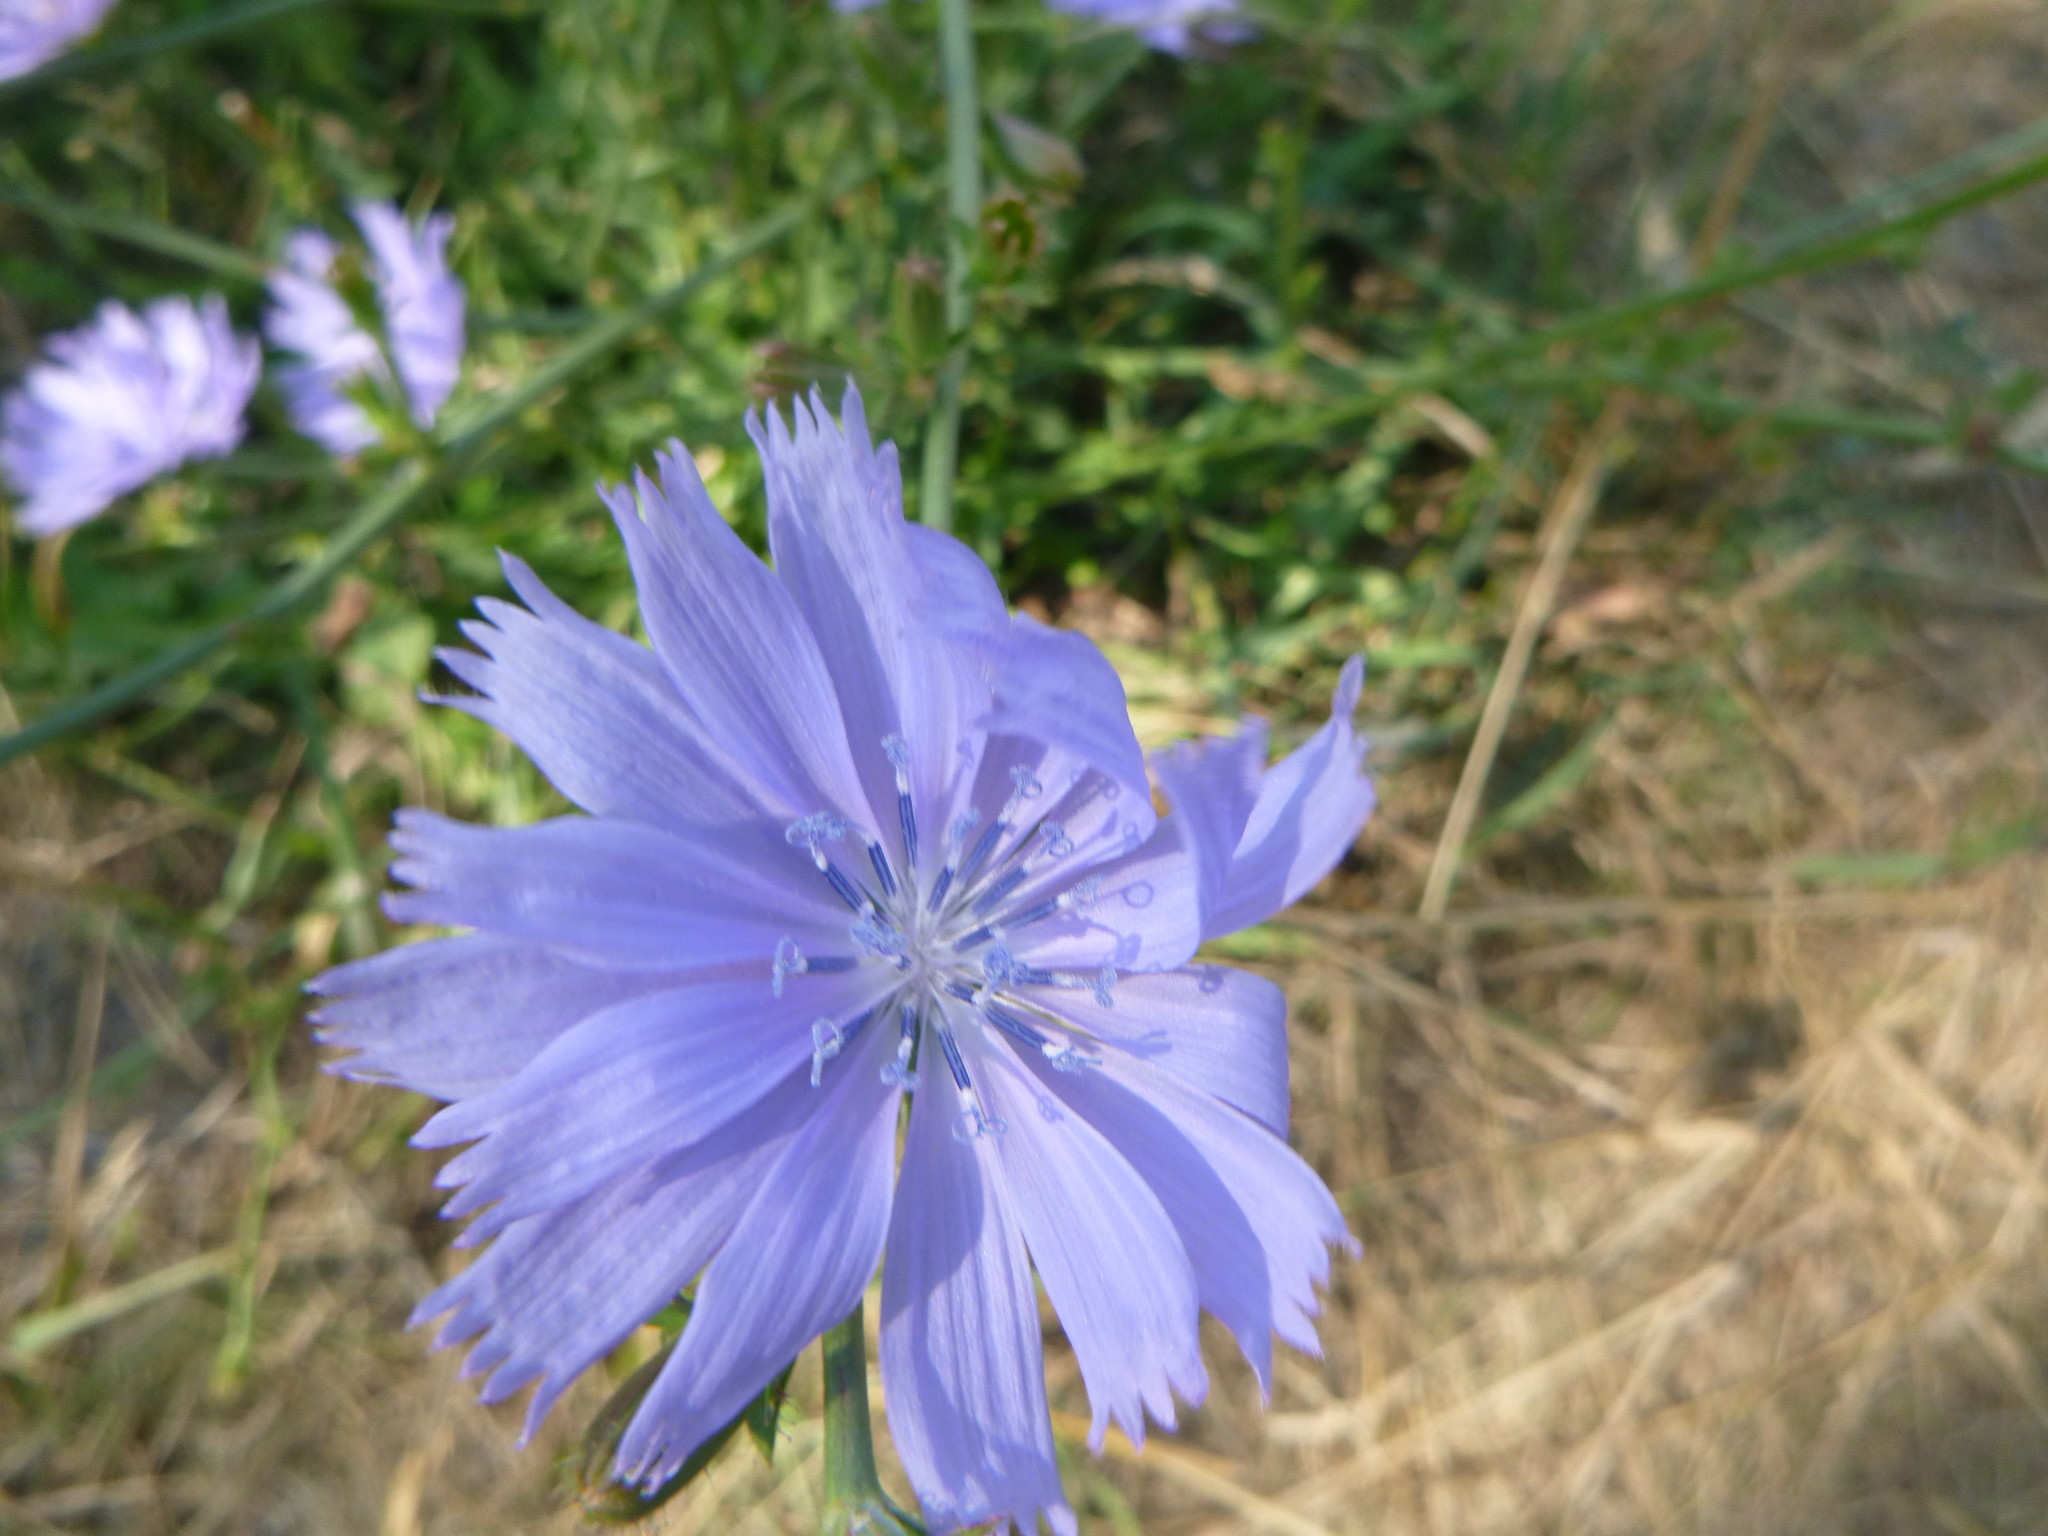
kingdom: Plantae
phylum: Tracheophyta
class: Magnoliopsida
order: Asterales
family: Asteraceae
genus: Cichorium
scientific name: Cichorium intybus
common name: Chicory
